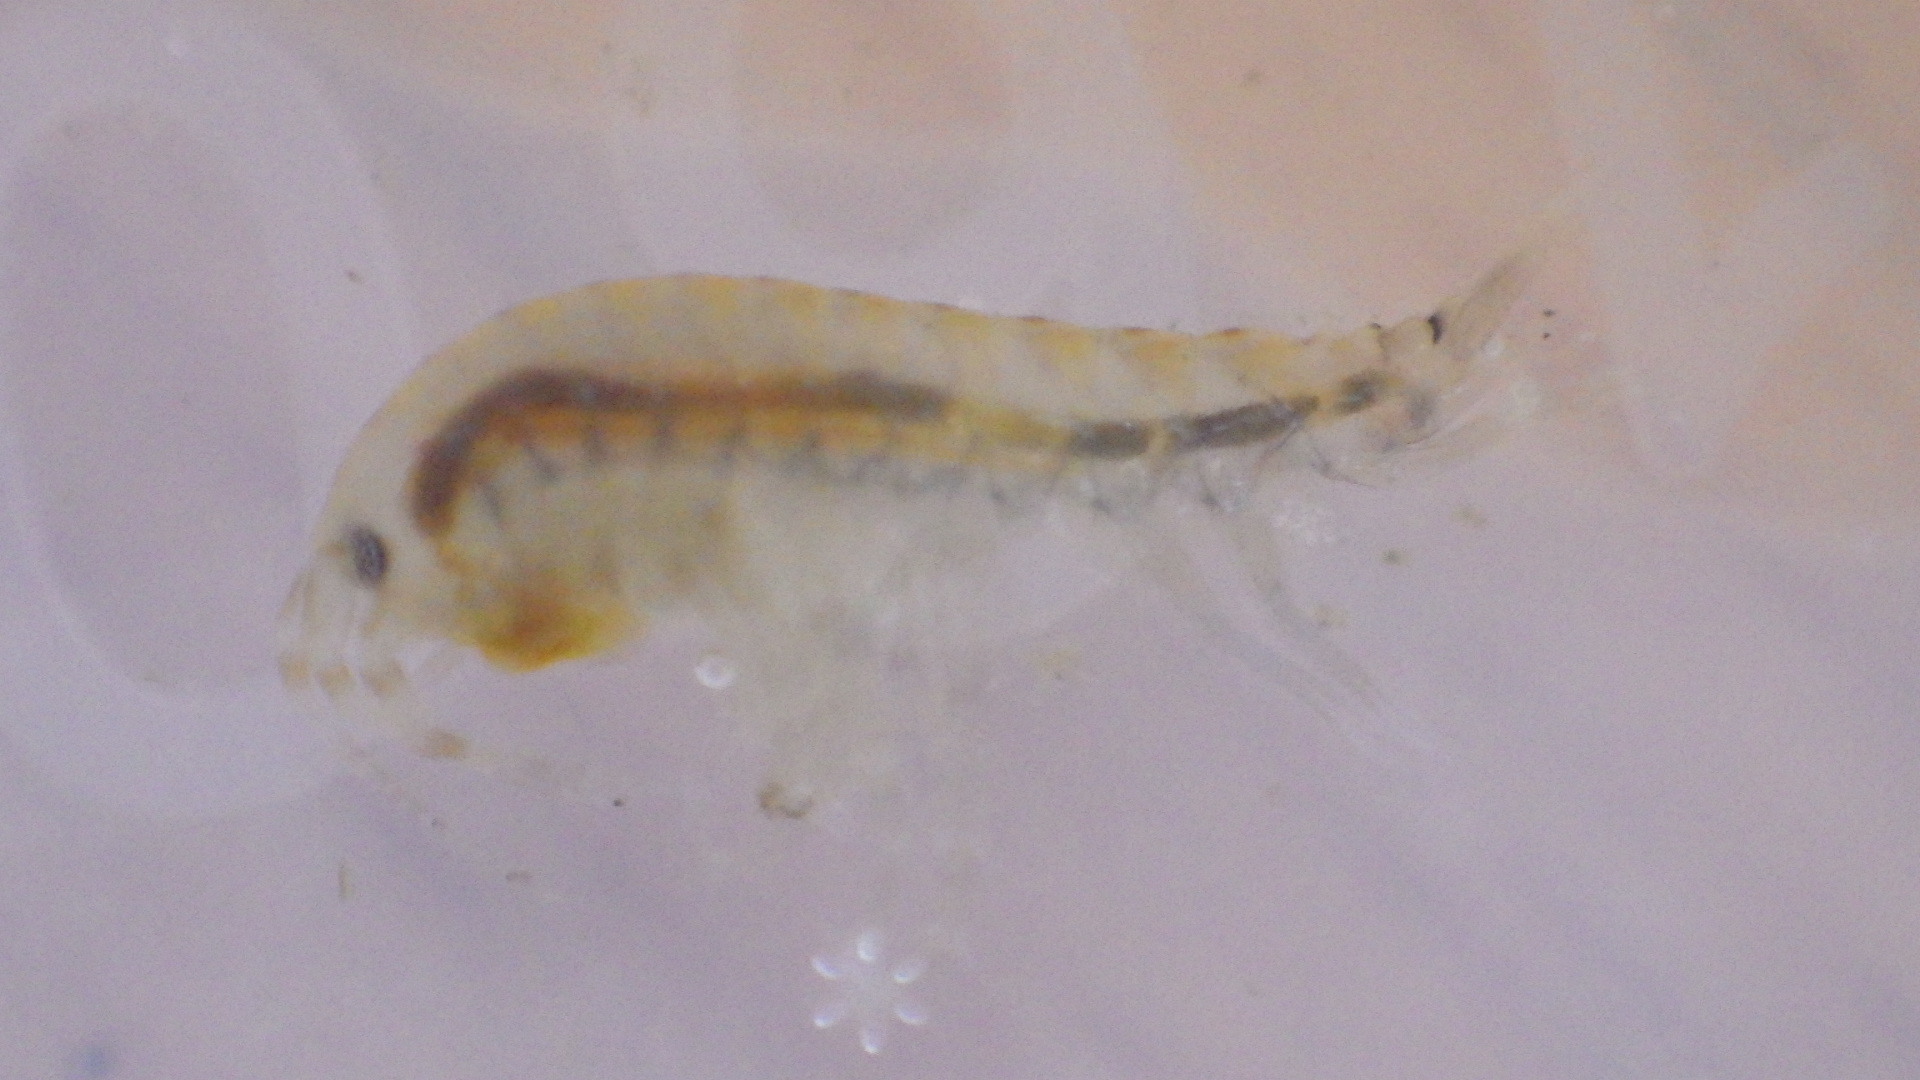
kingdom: Animalia
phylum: Arthropoda
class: Malacostraca
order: Amphipoda
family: Gammaridae
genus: Gammarus
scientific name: Gammarus fasciatus
